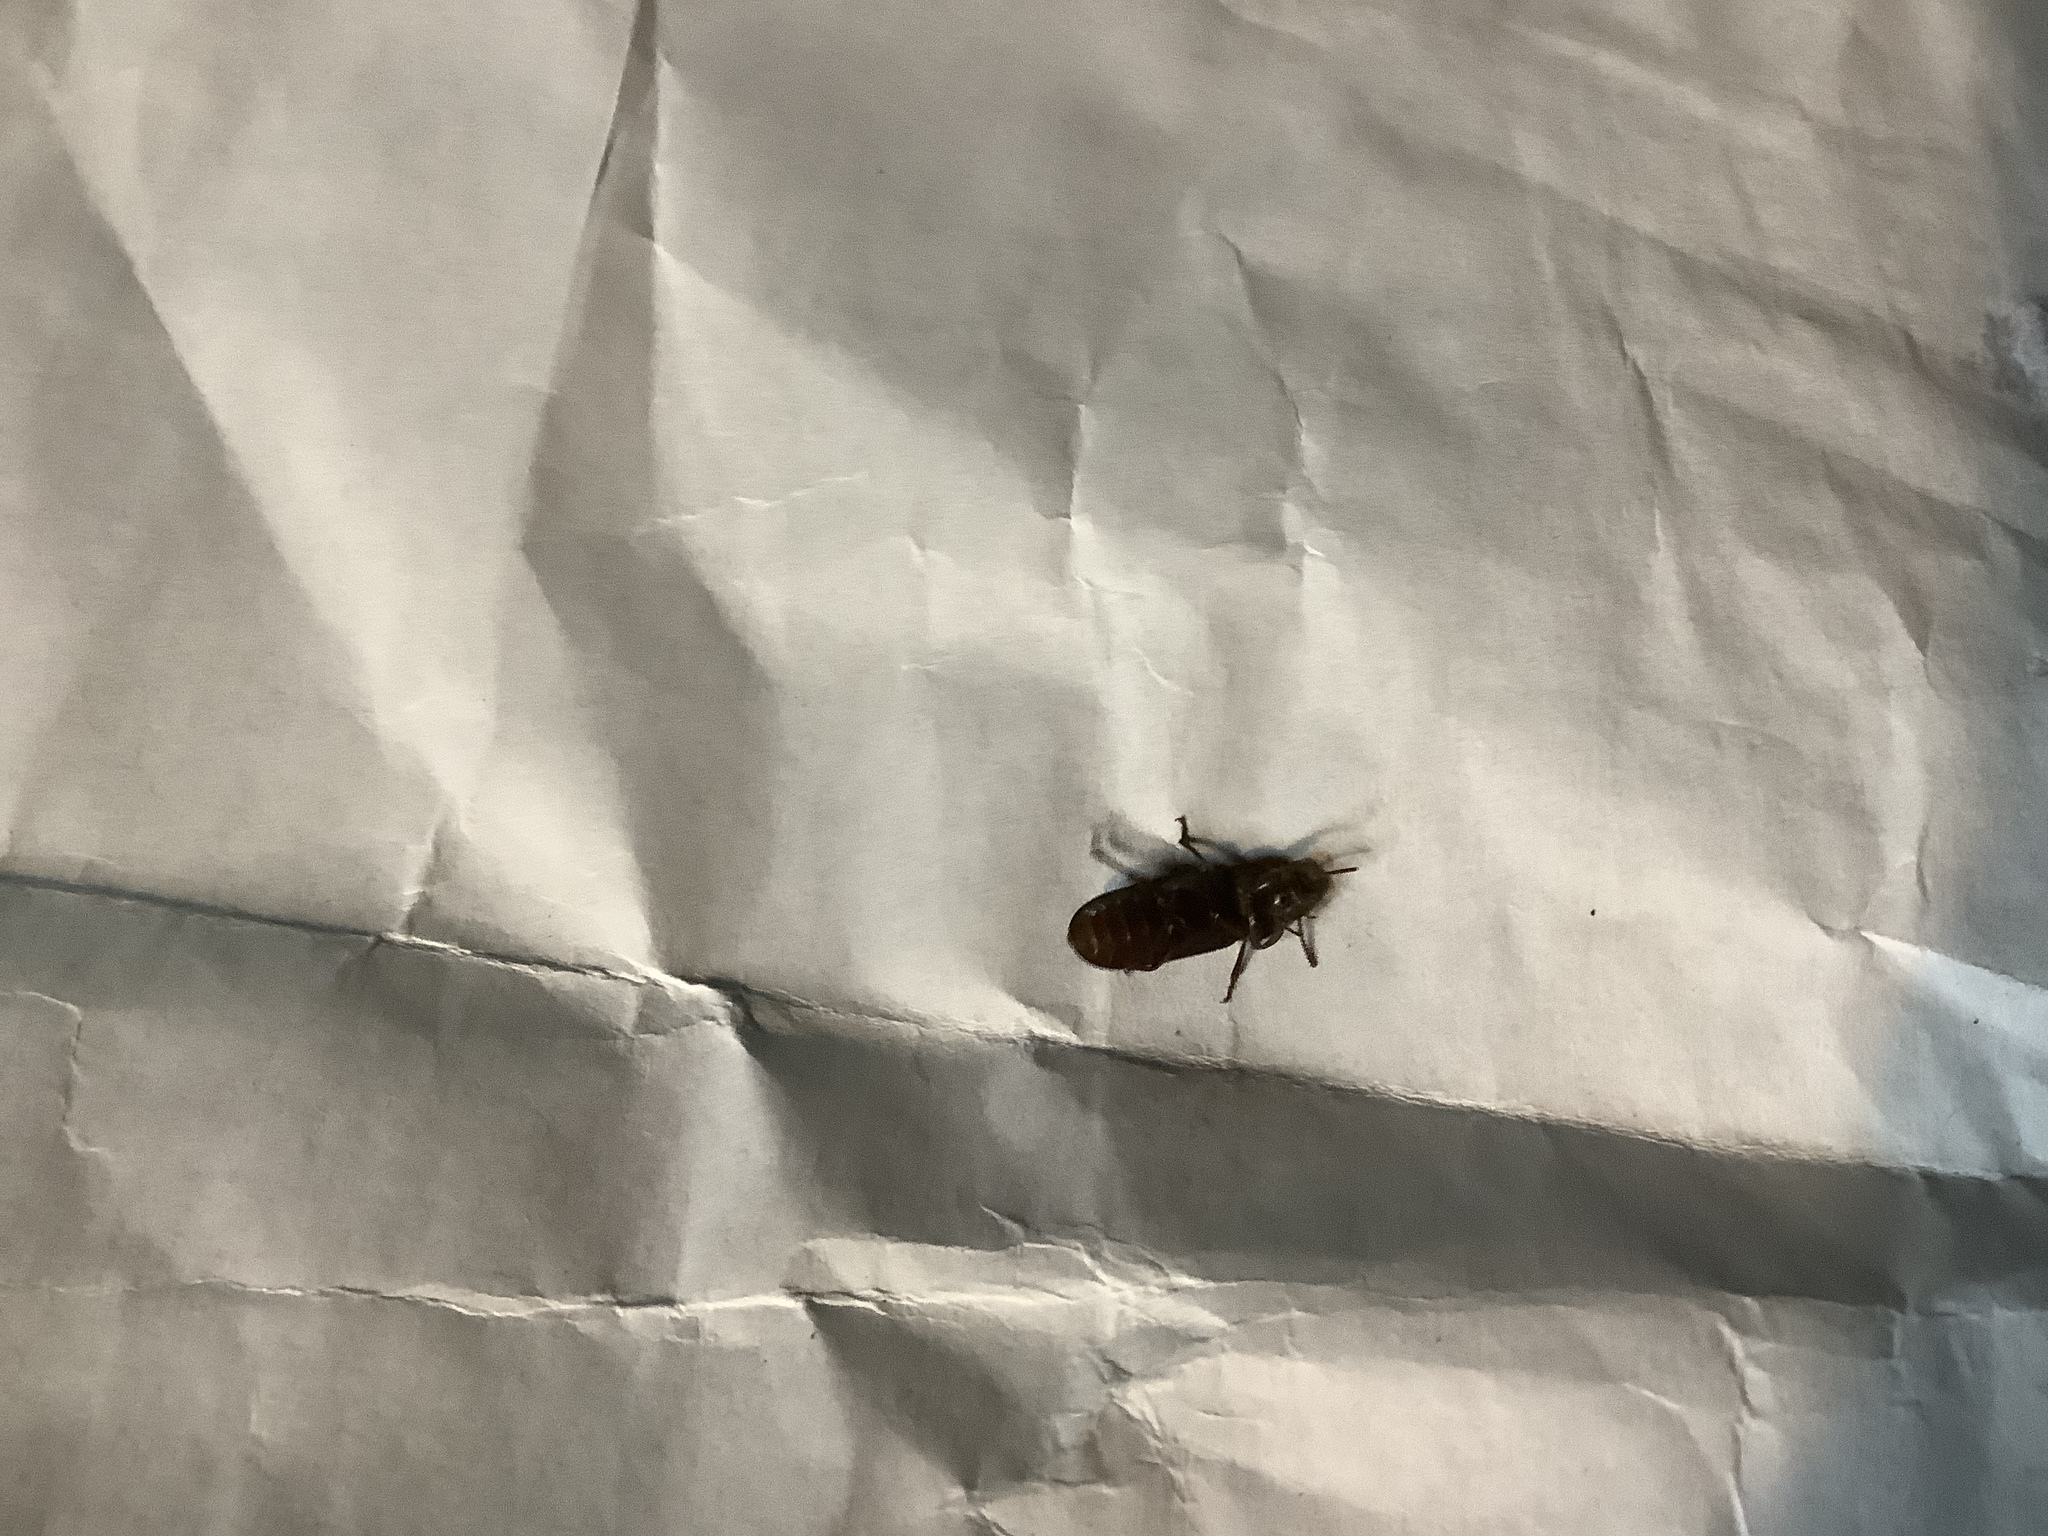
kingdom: Animalia
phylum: Arthropoda
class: Insecta
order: Coleoptera
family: Tenebrionidae
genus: Tenebrio
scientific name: Tenebrio molitor
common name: Hardback beetle
